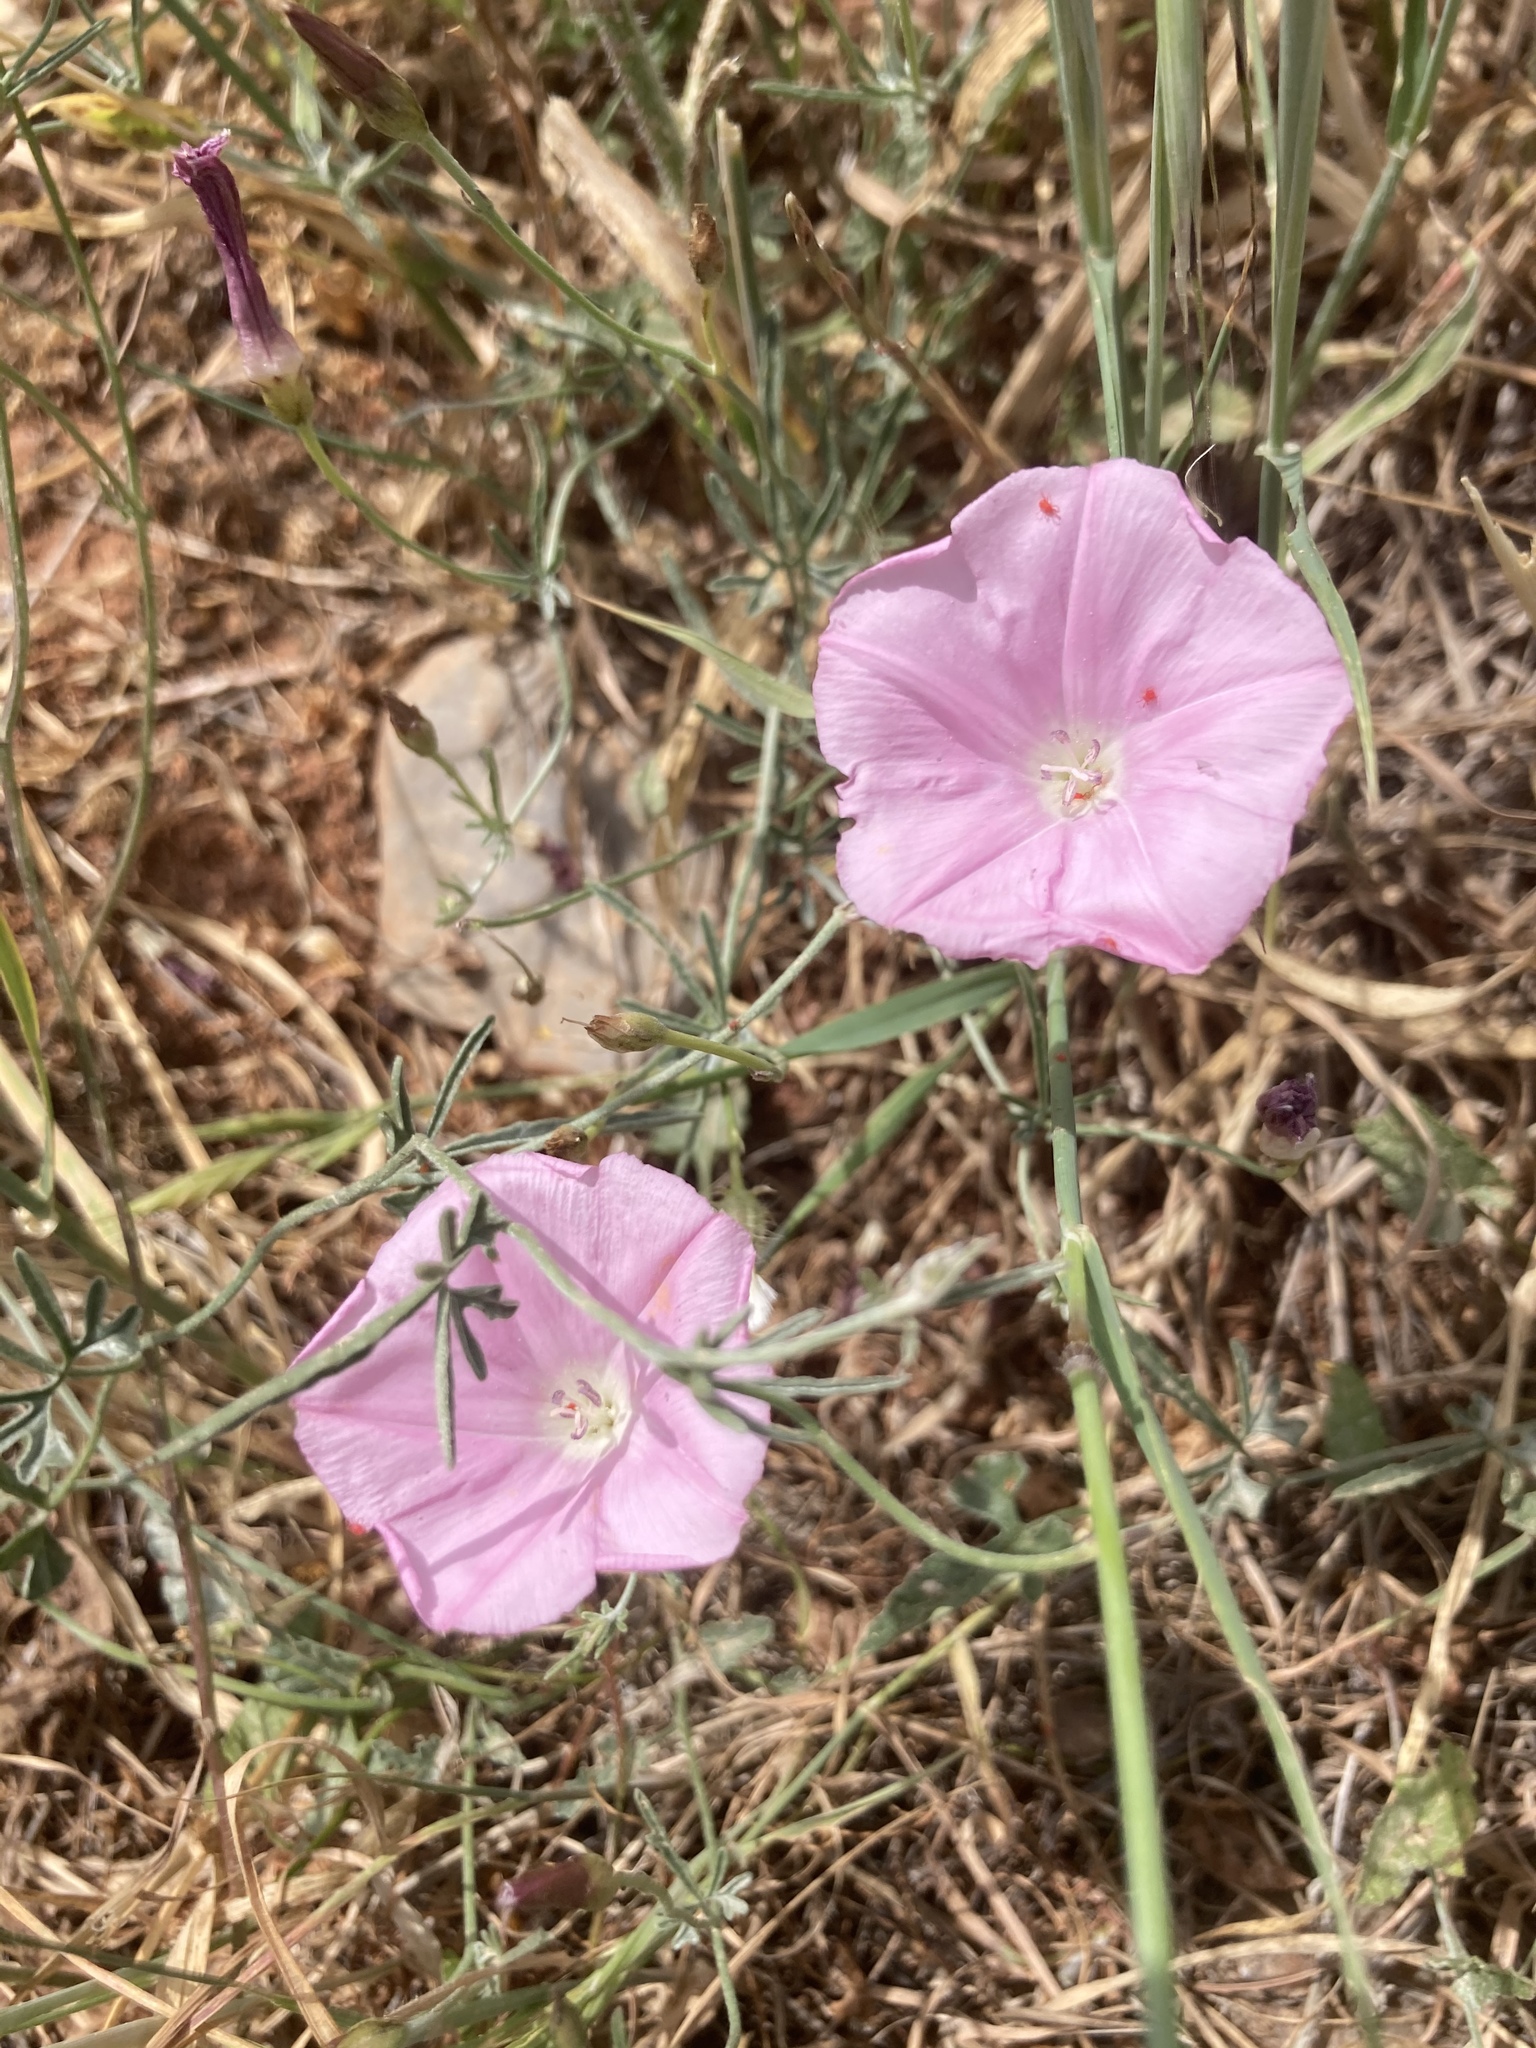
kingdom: Plantae
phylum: Tracheophyta
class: Magnoliopsida
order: Solanales
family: Convolvulaceae
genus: Convolvulus
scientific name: Convolvulus elegantissimus
